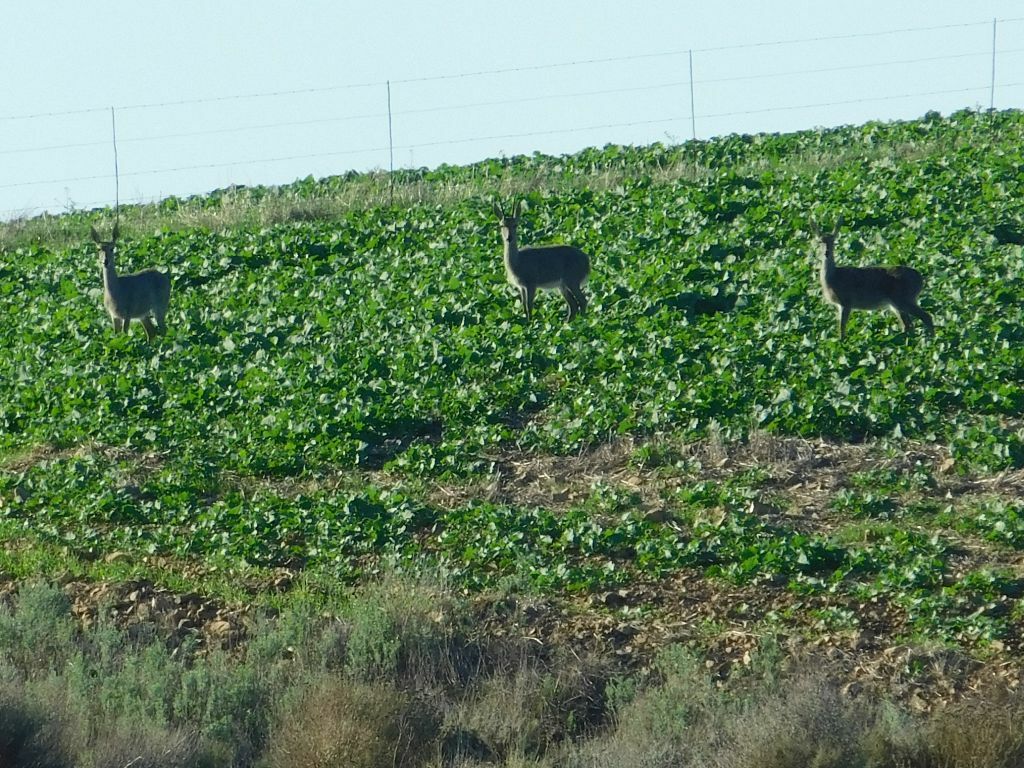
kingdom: Animalia
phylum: Chordata
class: Mammalia
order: Artiodactyla
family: Bovidae
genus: Pelea
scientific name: Pelea capreolus
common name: Common rhebok
